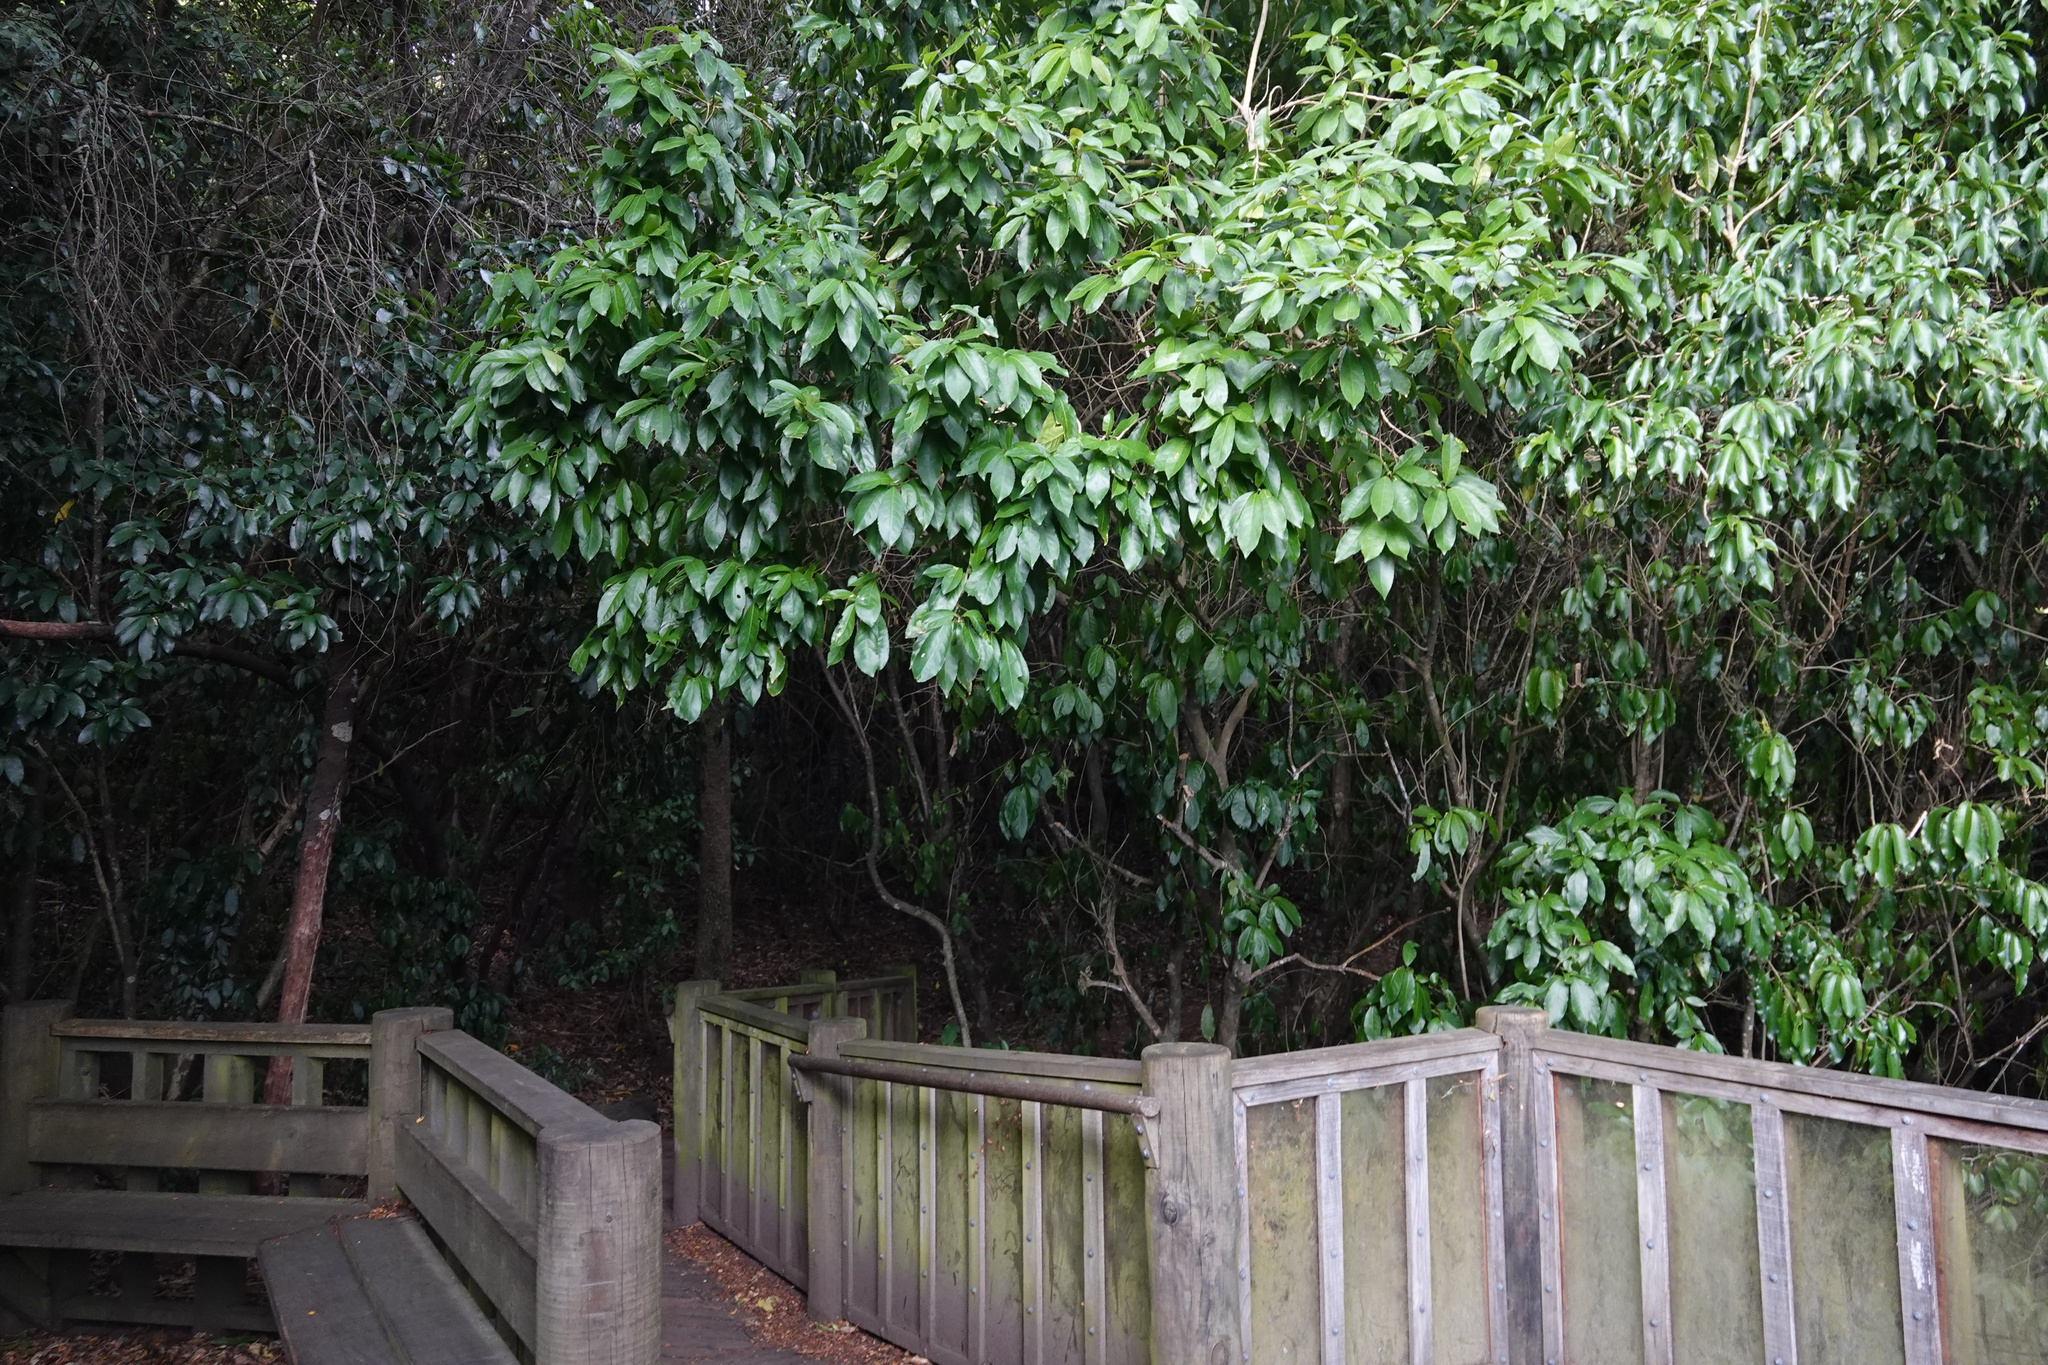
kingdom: Plantae
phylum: Tracheophyta
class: Magnoliopsida
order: Malpighiales
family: Violaceae
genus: Melicytus
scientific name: Melicytus ramiflorus
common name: Mahoe
